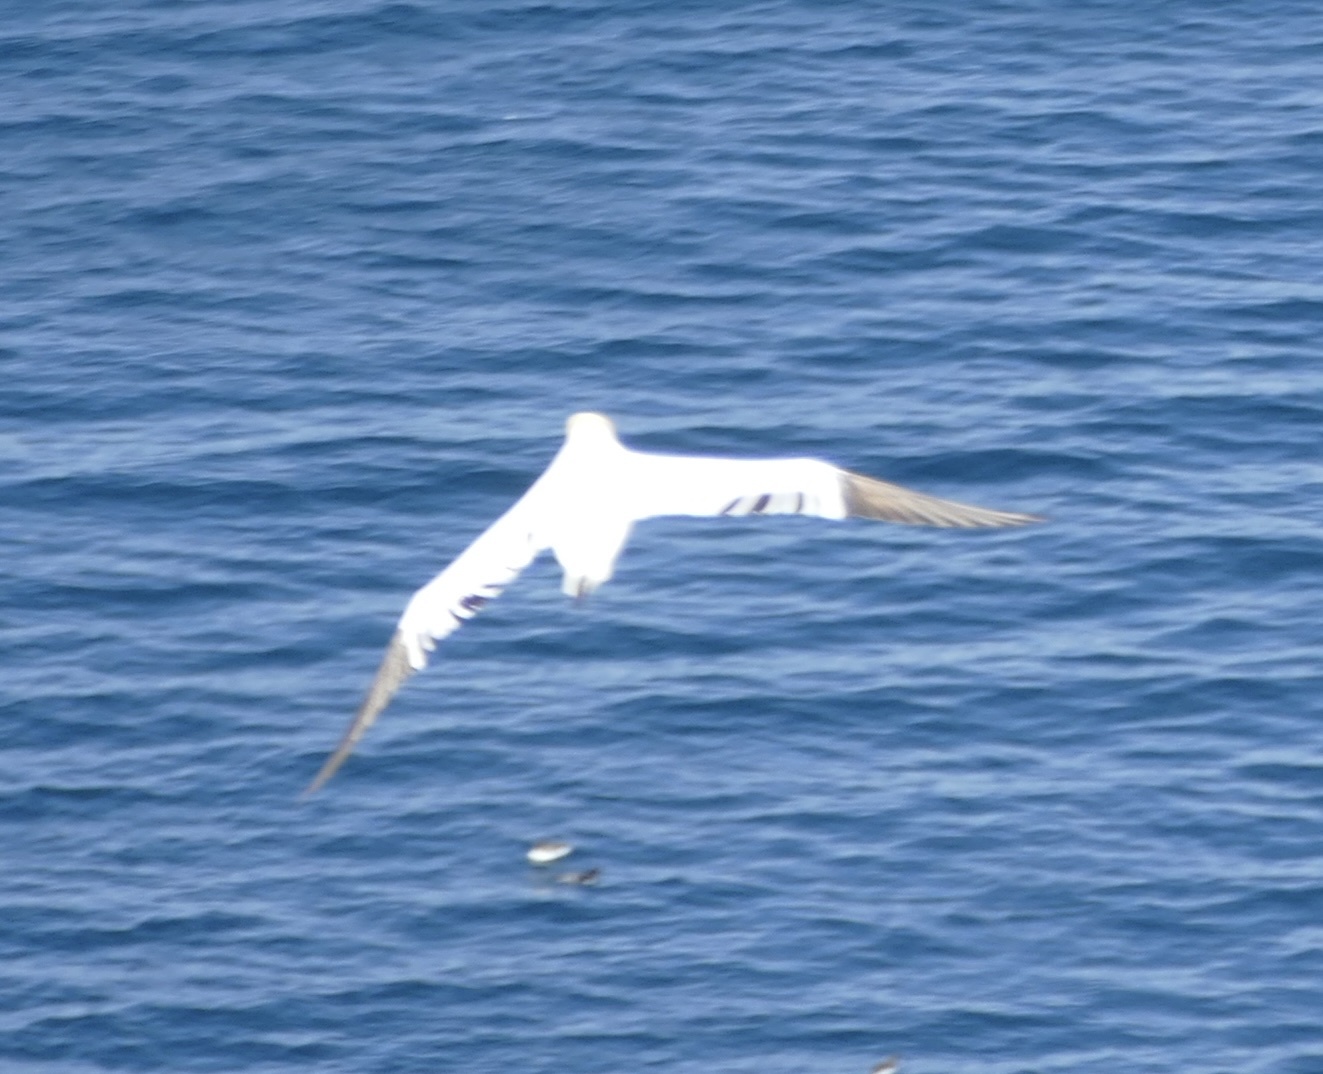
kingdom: Animalia
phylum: Chordata
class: Aves
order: Suliformes
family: Sulidae
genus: Morus
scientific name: Morus bassanus
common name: Northern gannet
